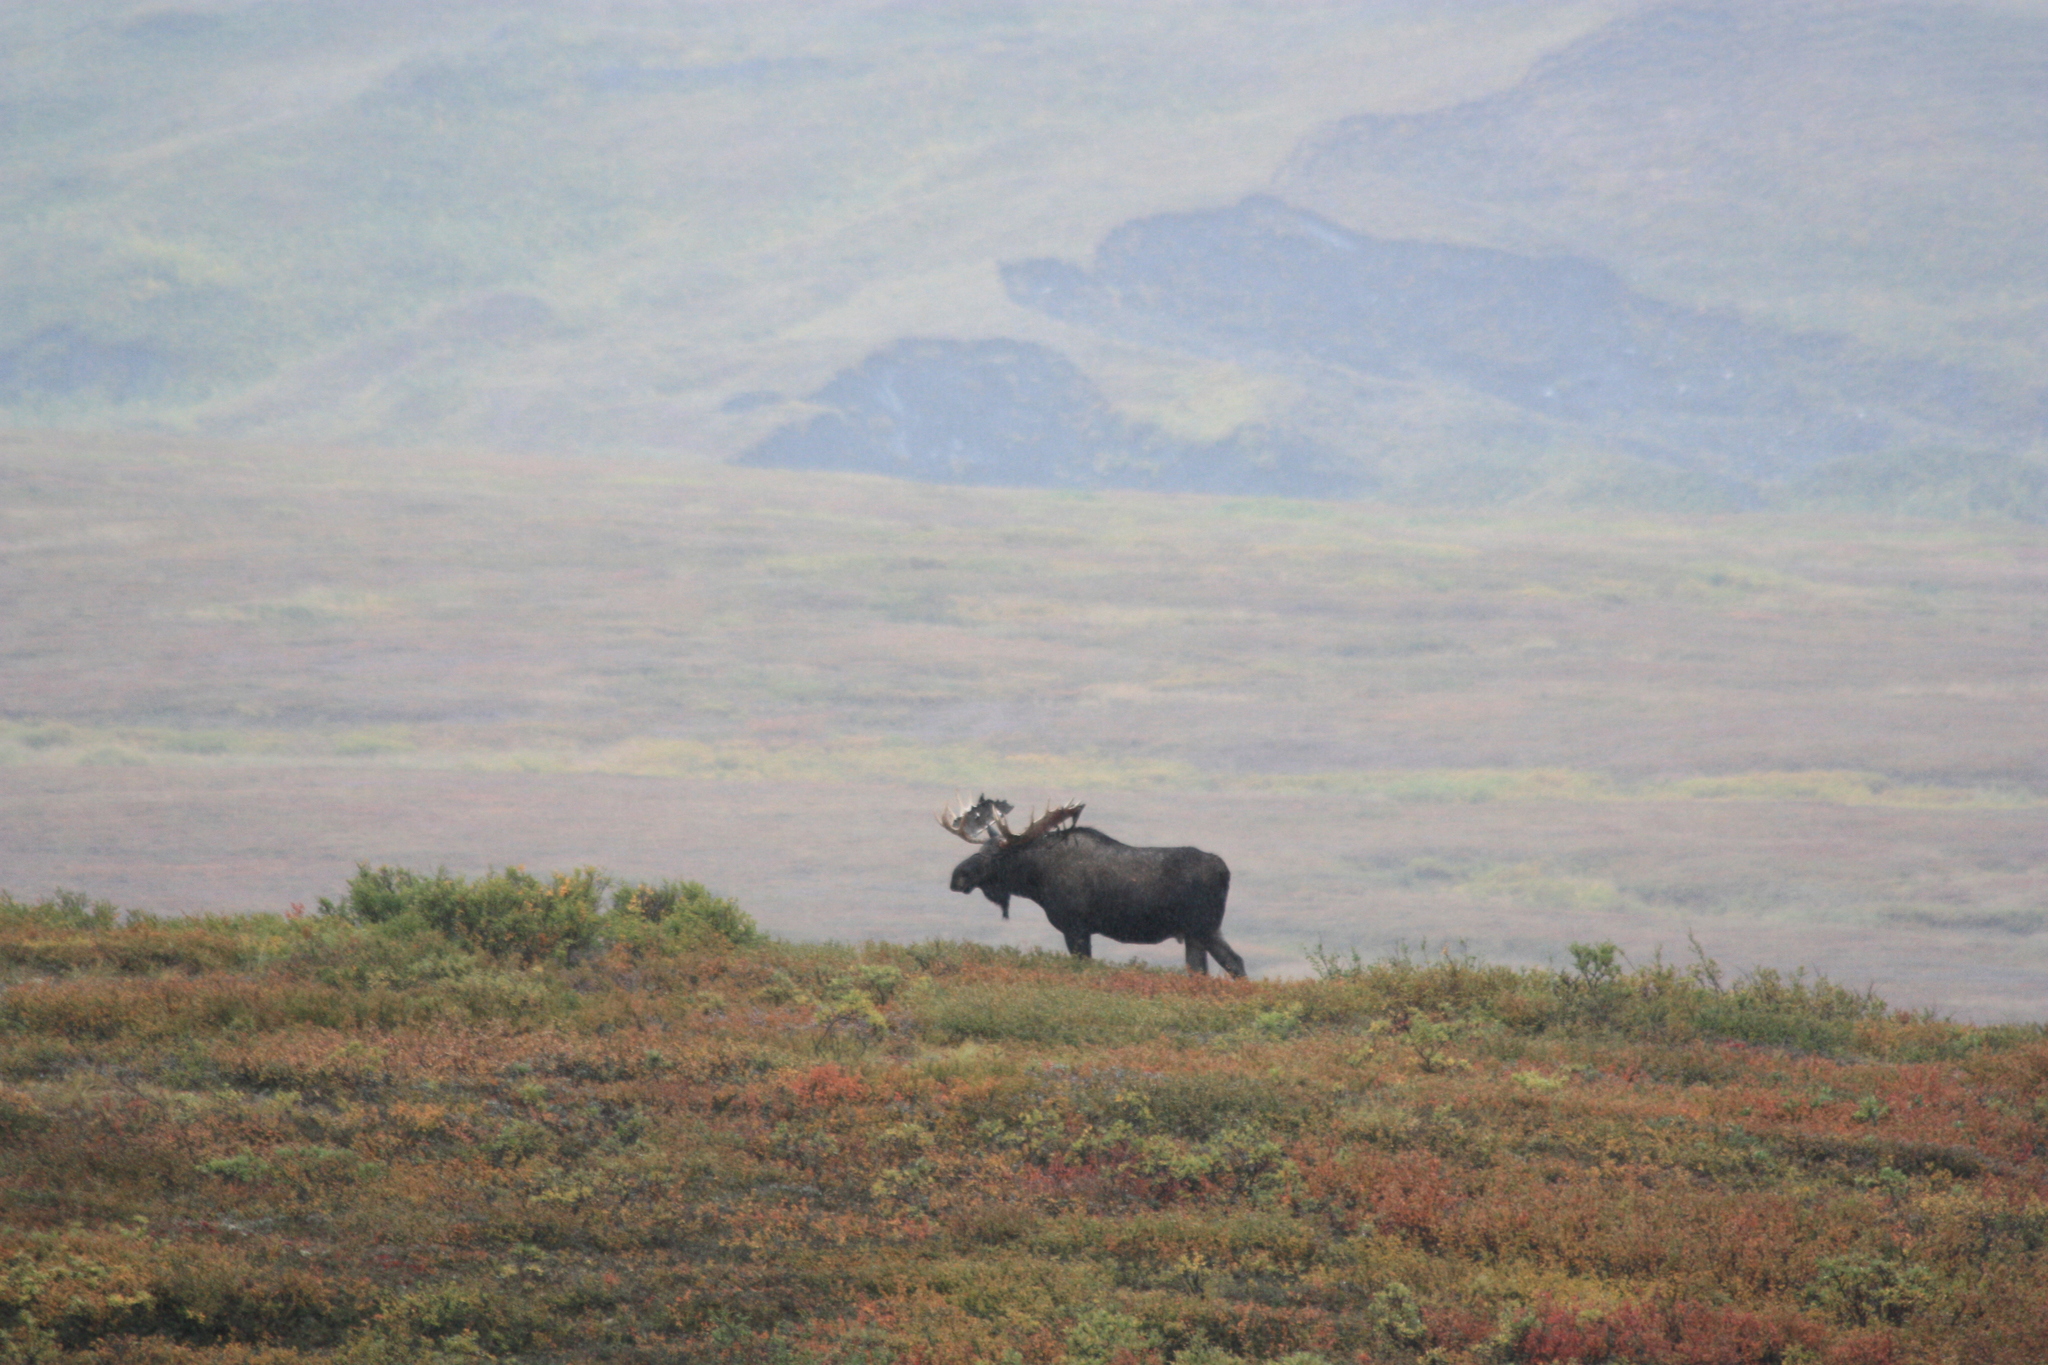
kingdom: Animalia
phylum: Chordata
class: Mammalia
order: Artiodactyla
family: Cervidae
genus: Alces
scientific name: Alces alces
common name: Moose
